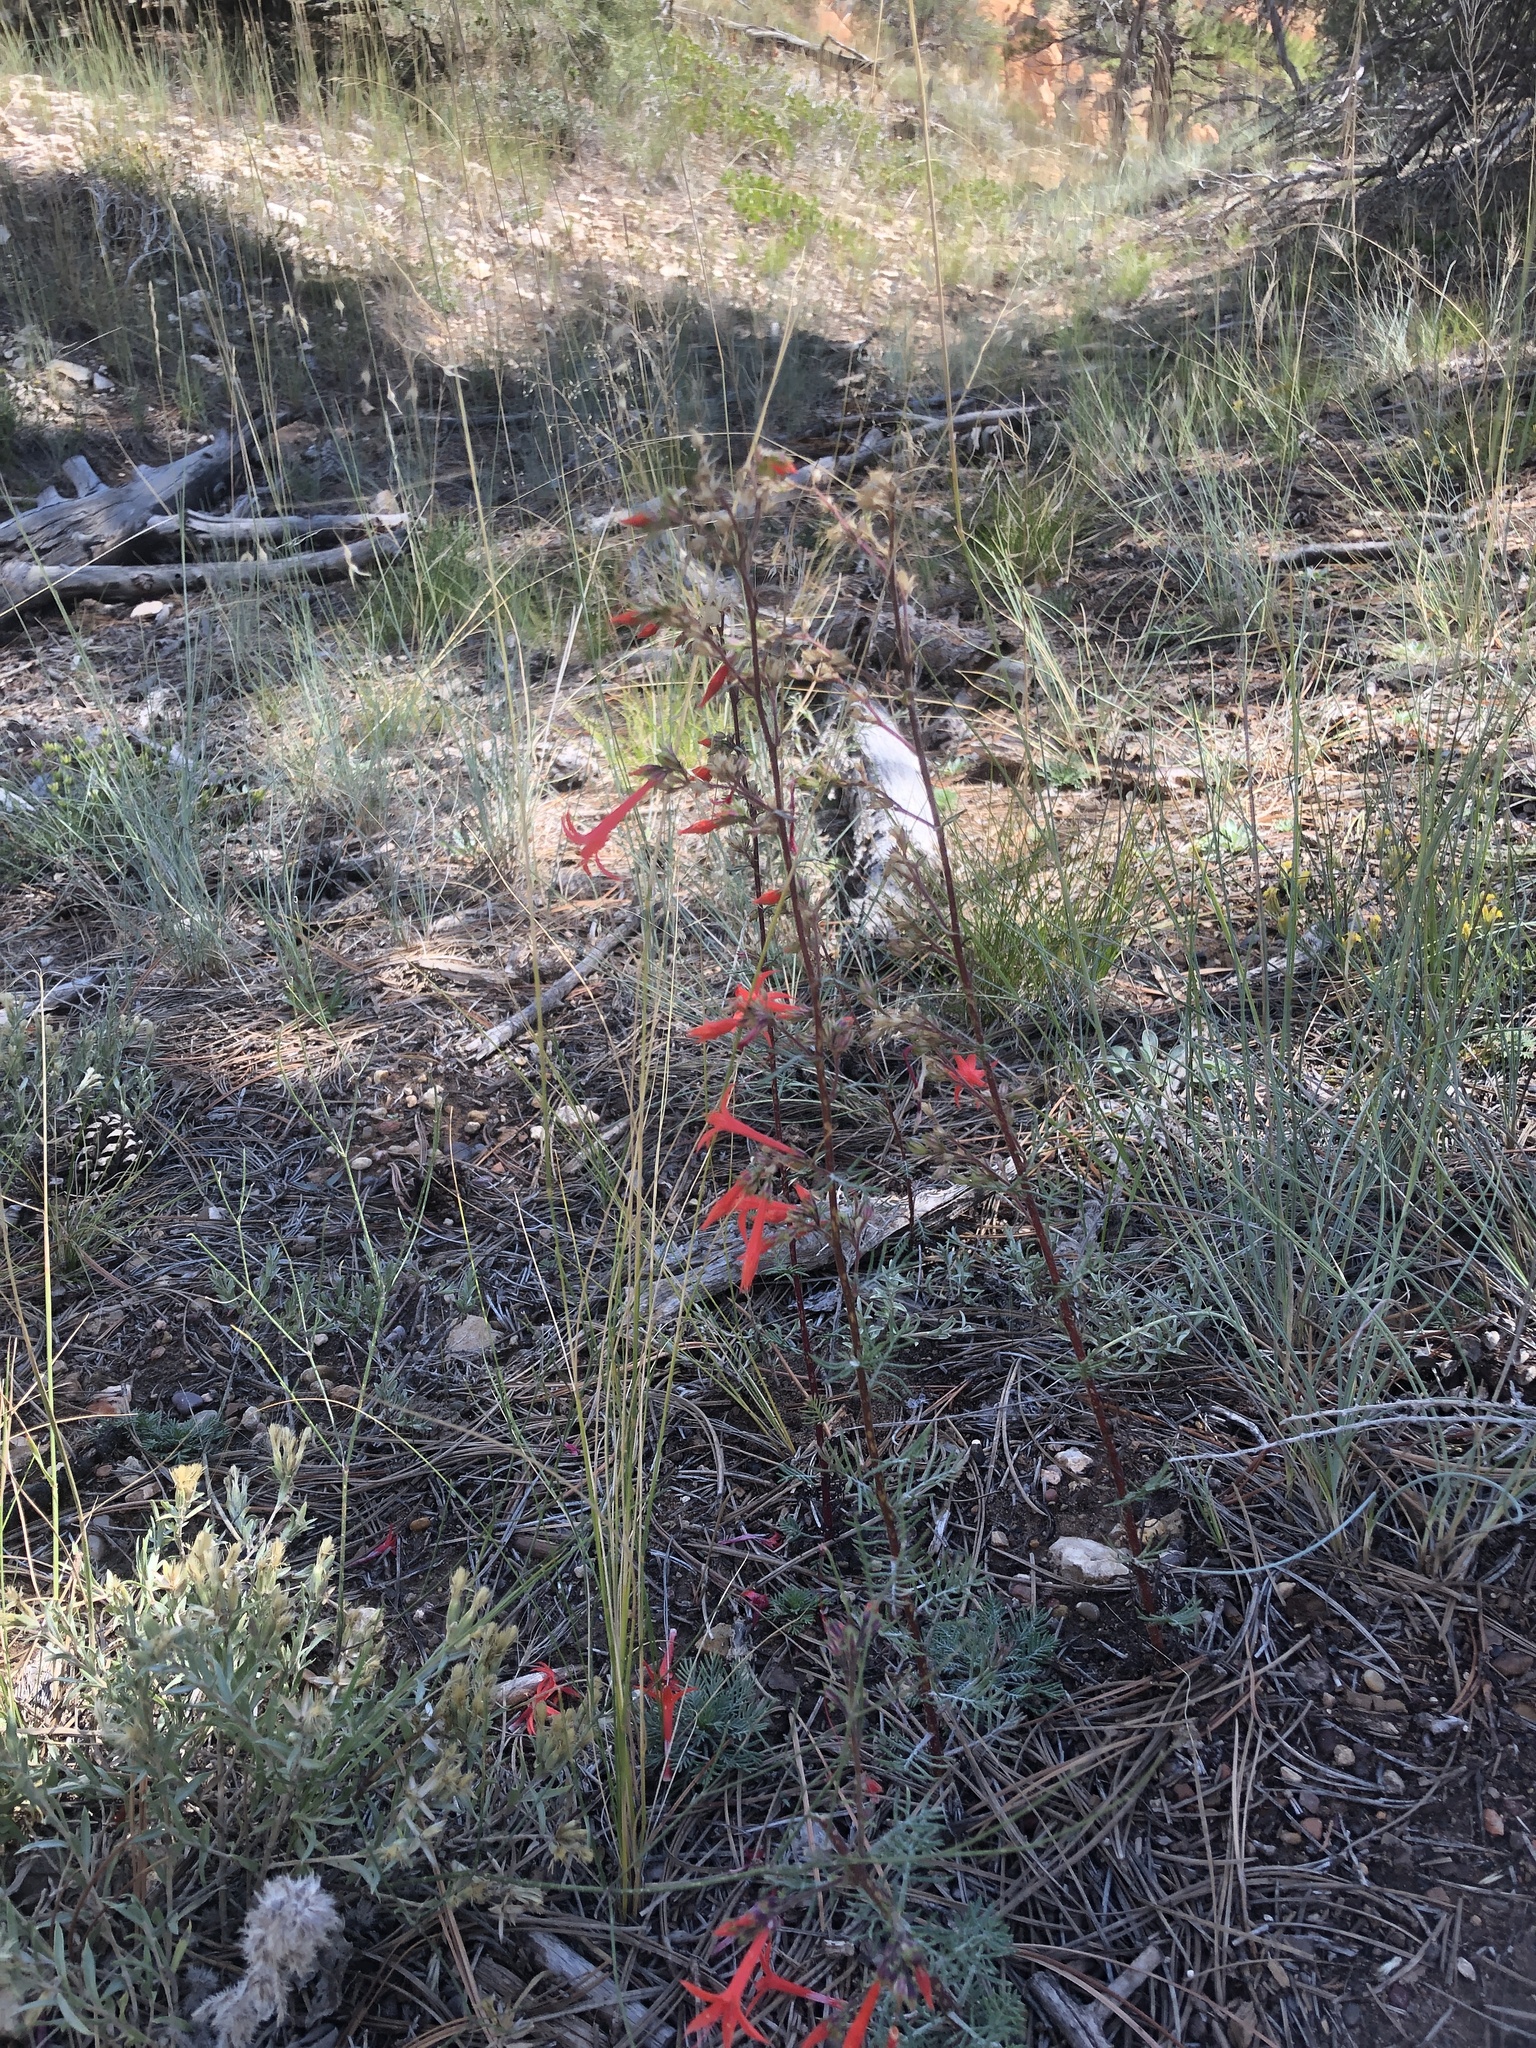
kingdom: Plantae
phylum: Tracheophyta
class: Magnoliopsida
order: Ericales
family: Polemoniaceae
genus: Ipomopsis
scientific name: Ipomopsis aggregata
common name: Scarlet gilia
